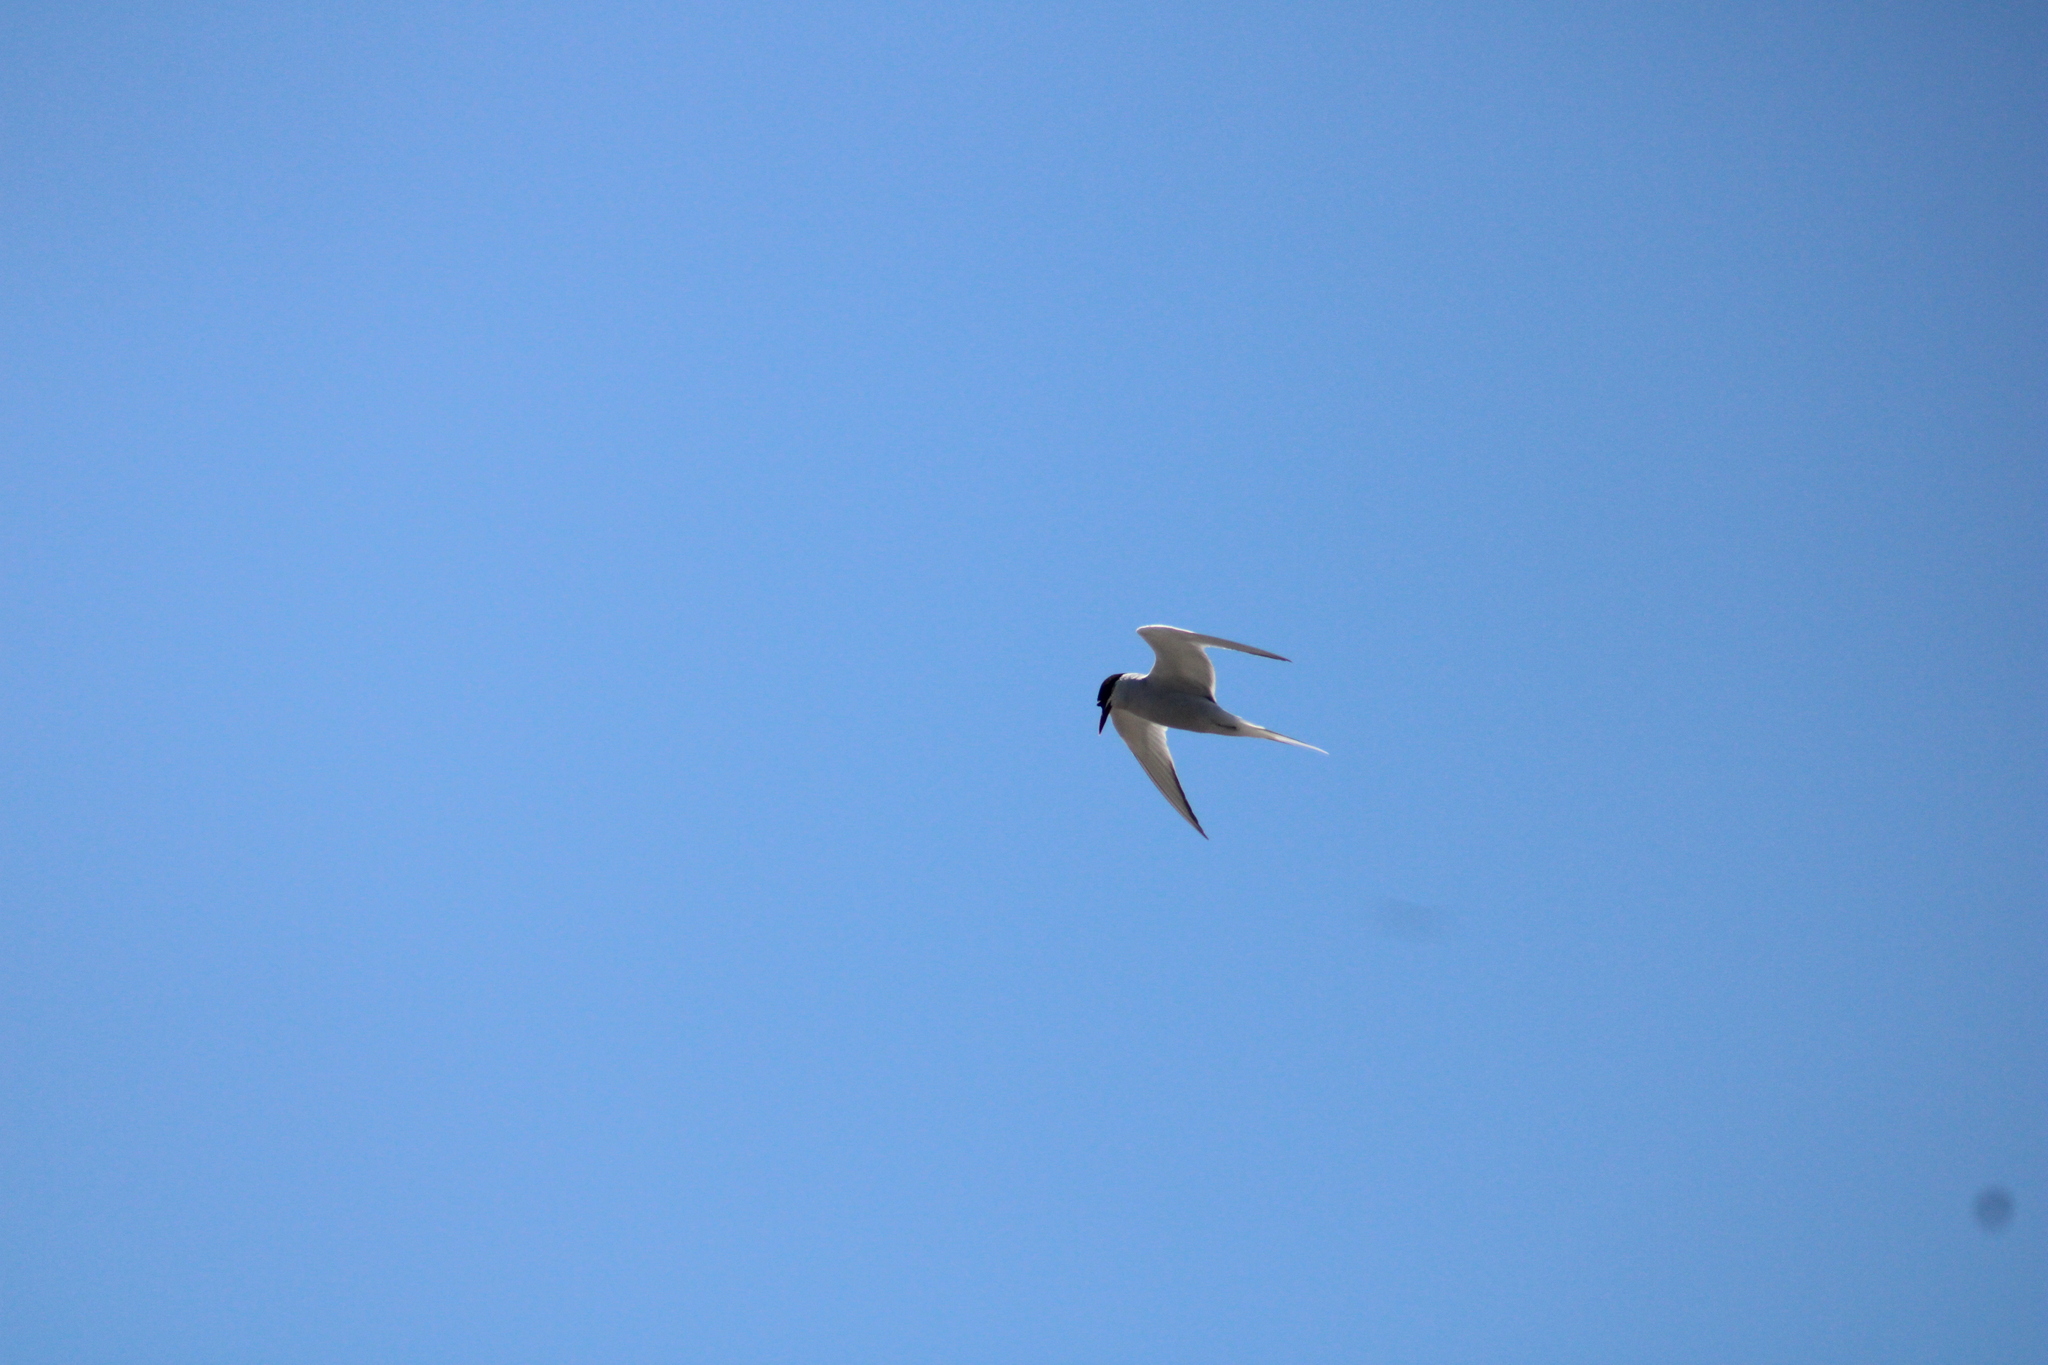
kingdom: Animalia
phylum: Chordata
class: Aves
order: Charadriiformes
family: Laridae
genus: Sterna
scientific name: Sterna hirundinacea
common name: South american tern
